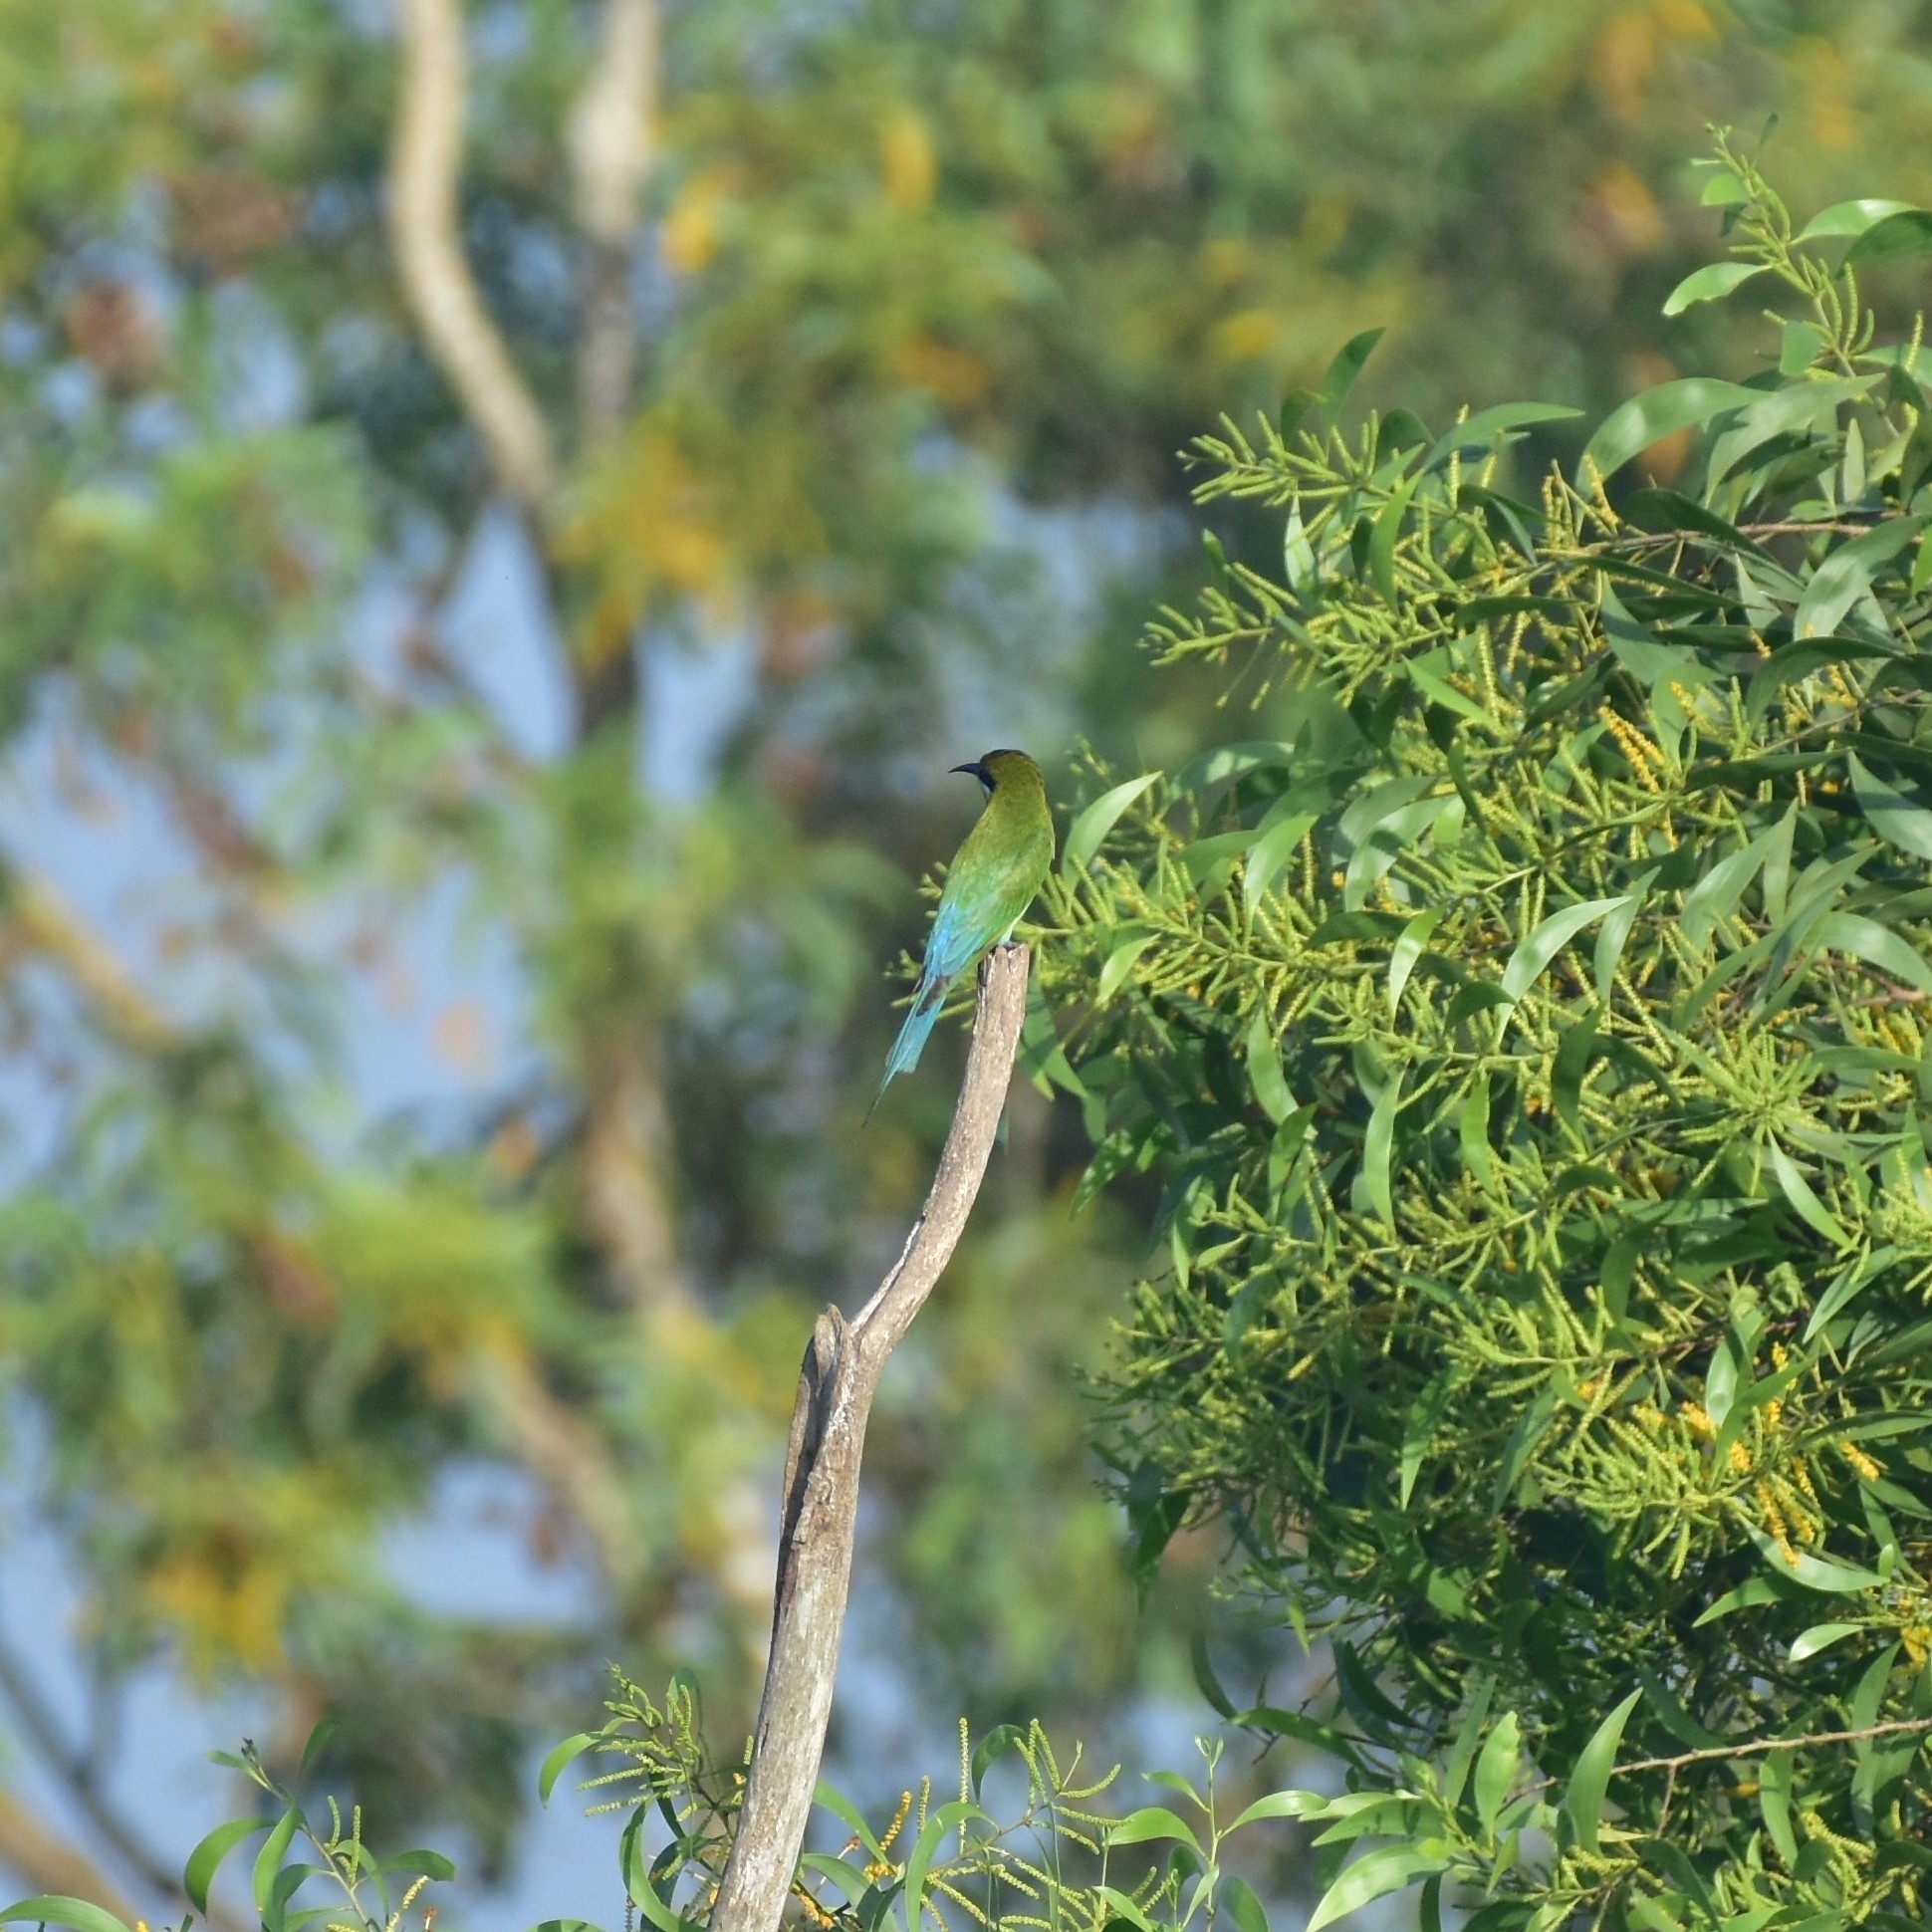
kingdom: Animalia
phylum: Chordata
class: Aves
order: Coraciiformes
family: Meropidae
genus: Merops
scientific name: Merops philippinus
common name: Blue-tailed bee-eater
